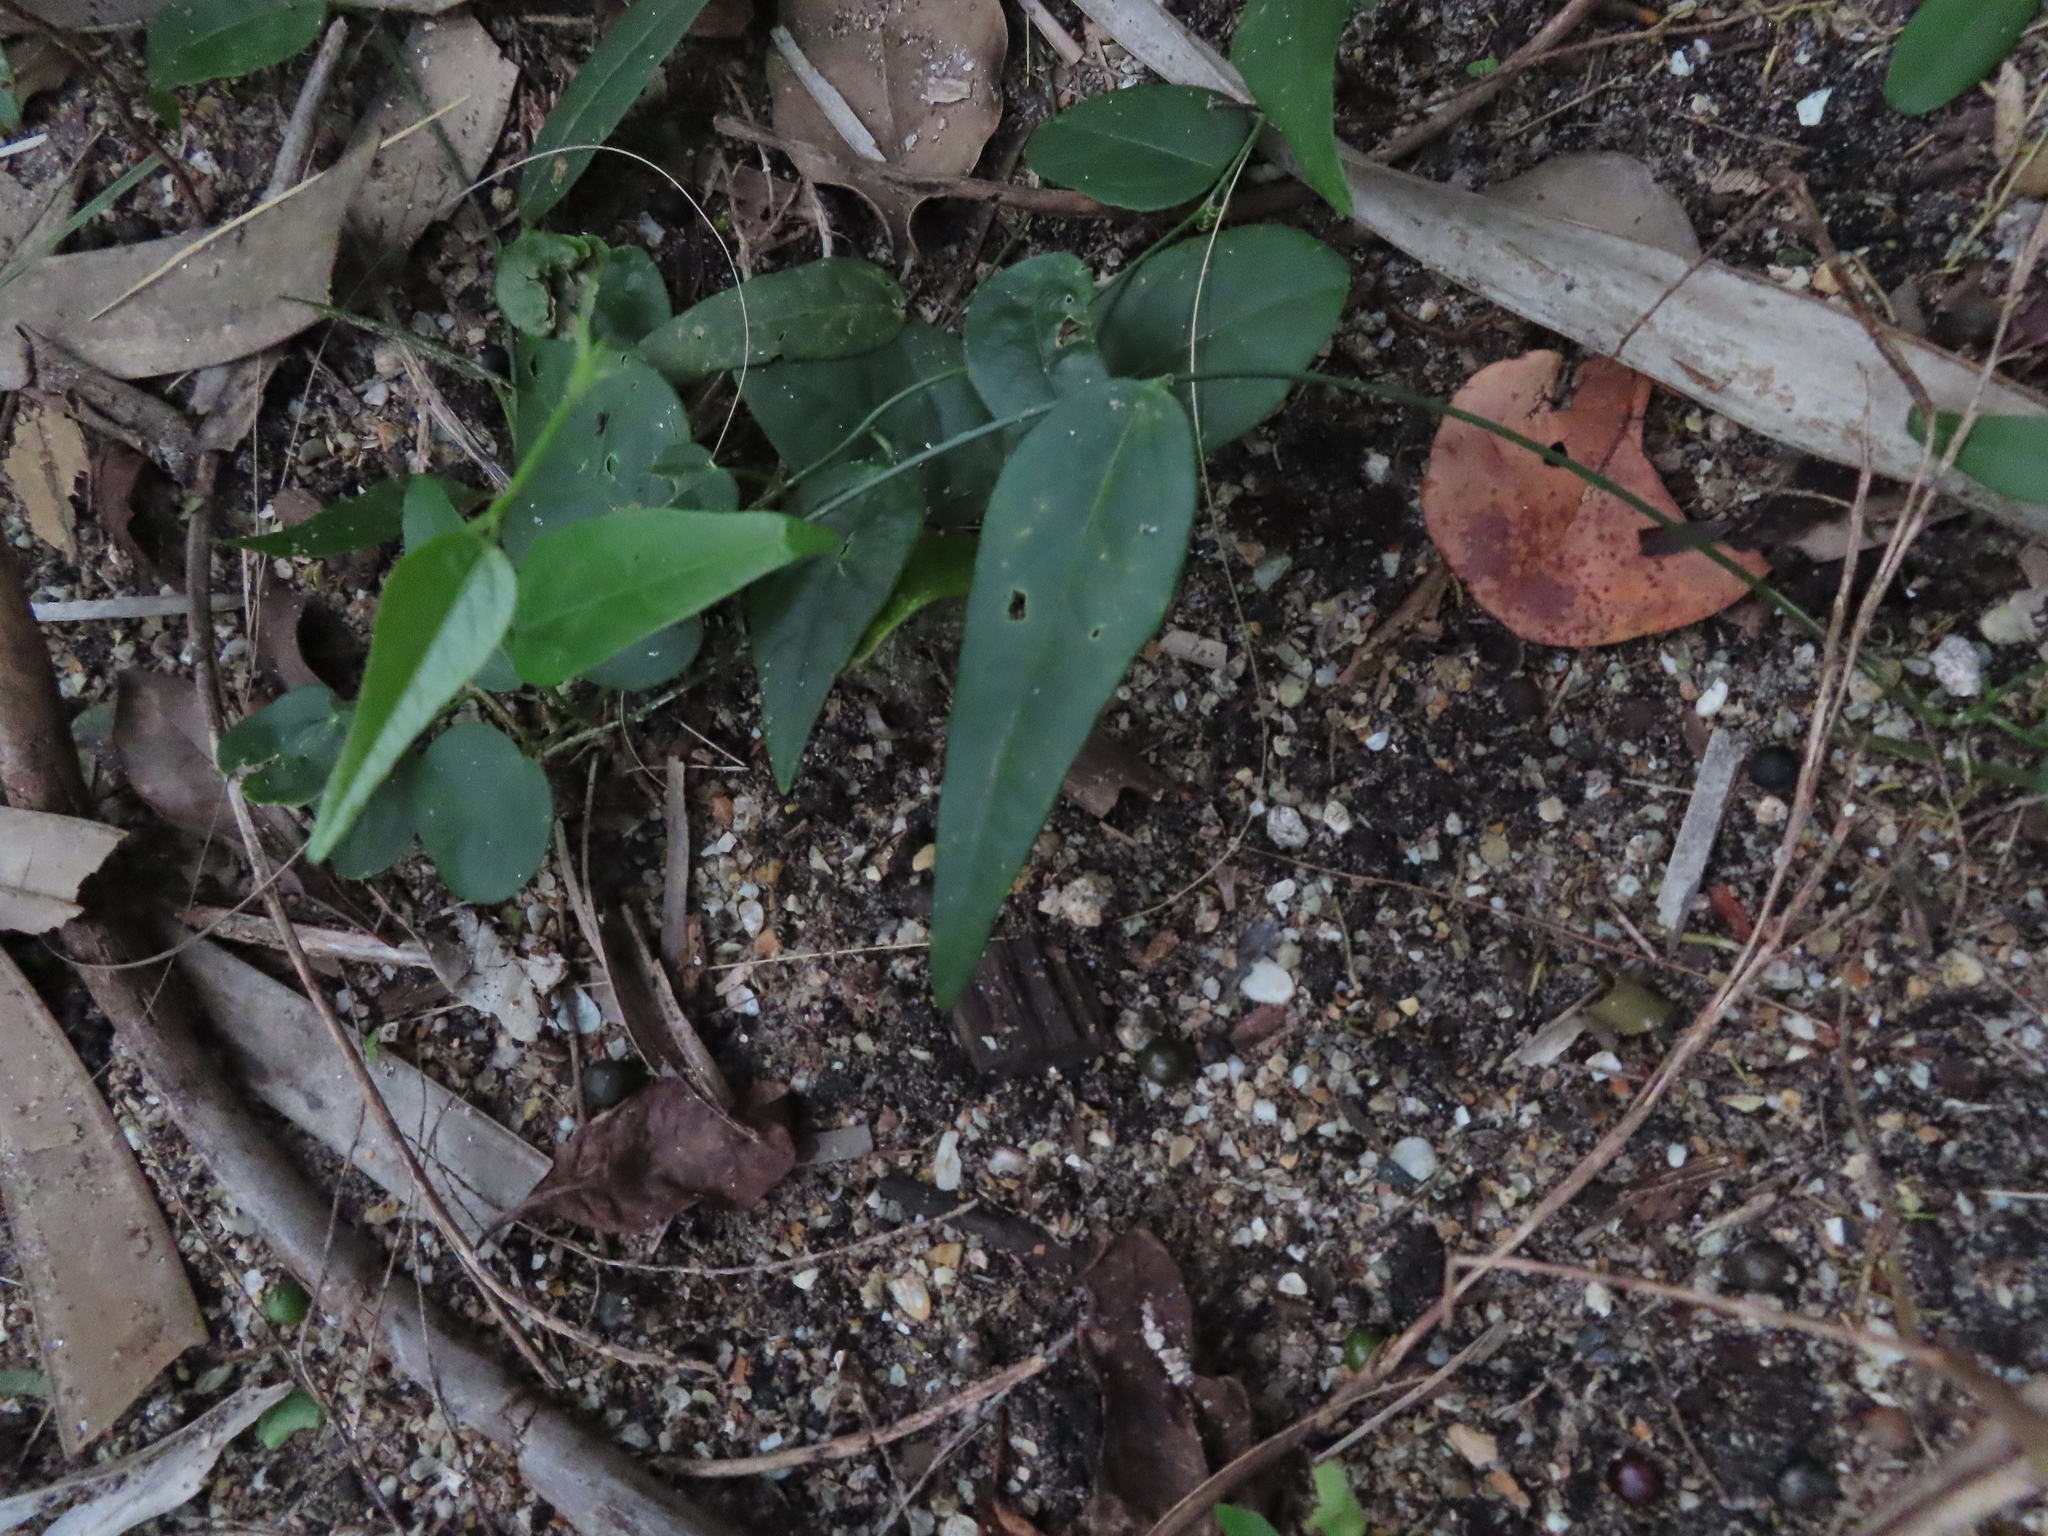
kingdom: Plantae
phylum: Tracheophyta
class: Magnoliopsida
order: Malpighiales
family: Passifloraceae
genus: Passiflora
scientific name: Passiflora pallida
